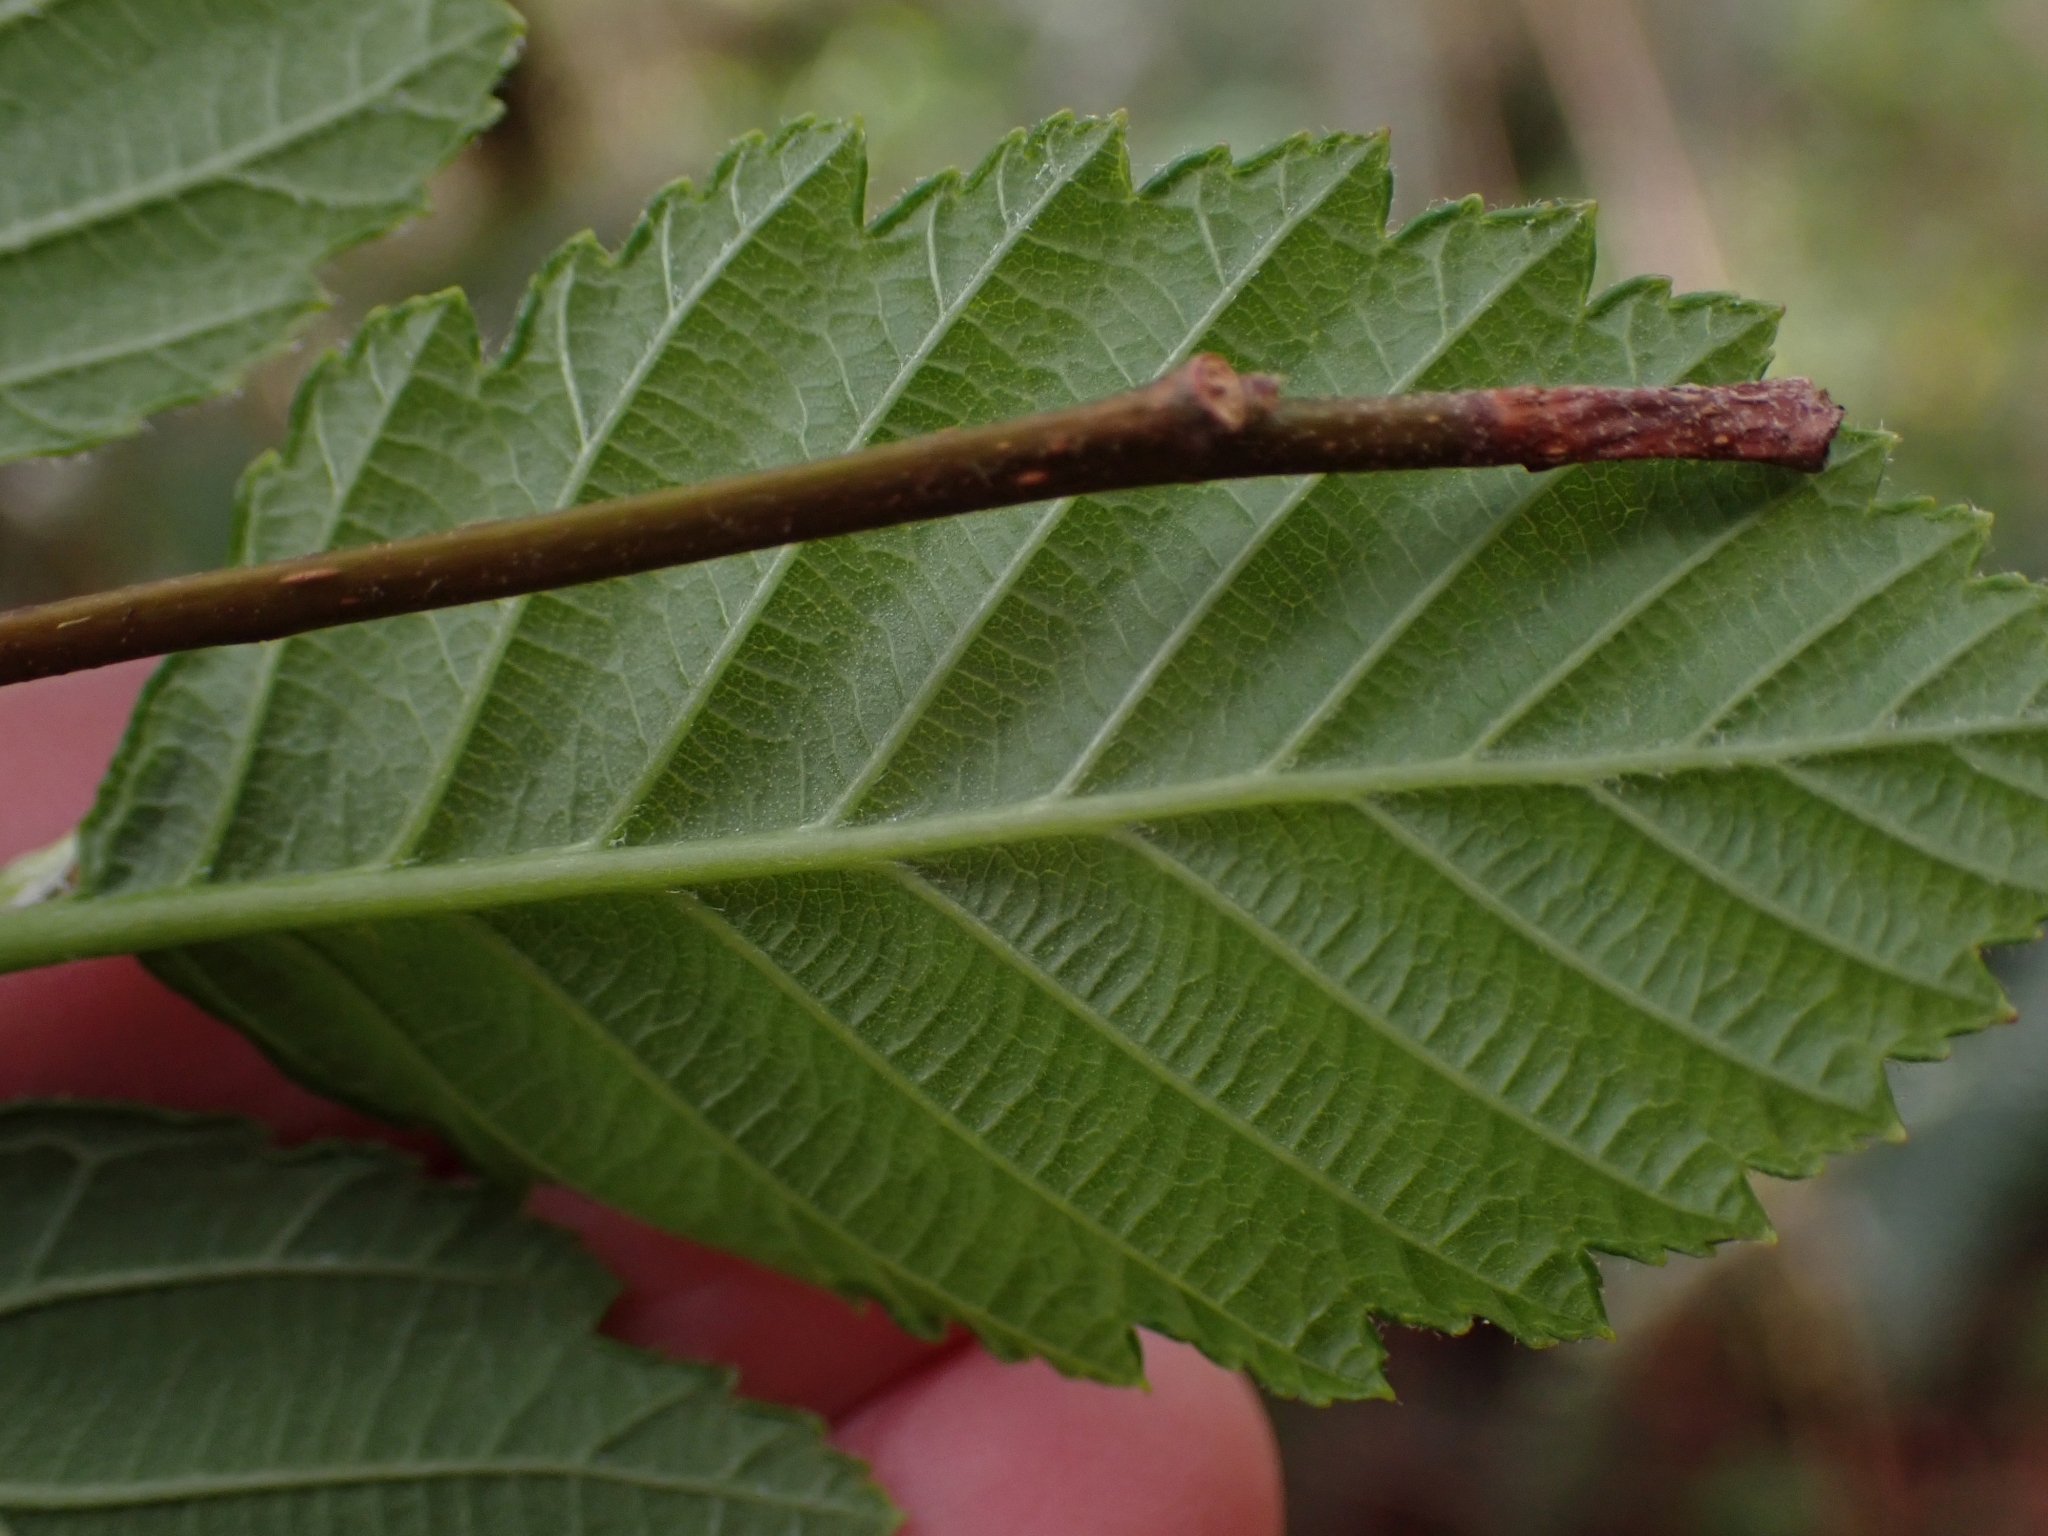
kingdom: Plantae
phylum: Tracheophyta
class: Magnoliopsida
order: Fagales
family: Betulaceae
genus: Alnus
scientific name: Alnus rubra
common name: Red alder
